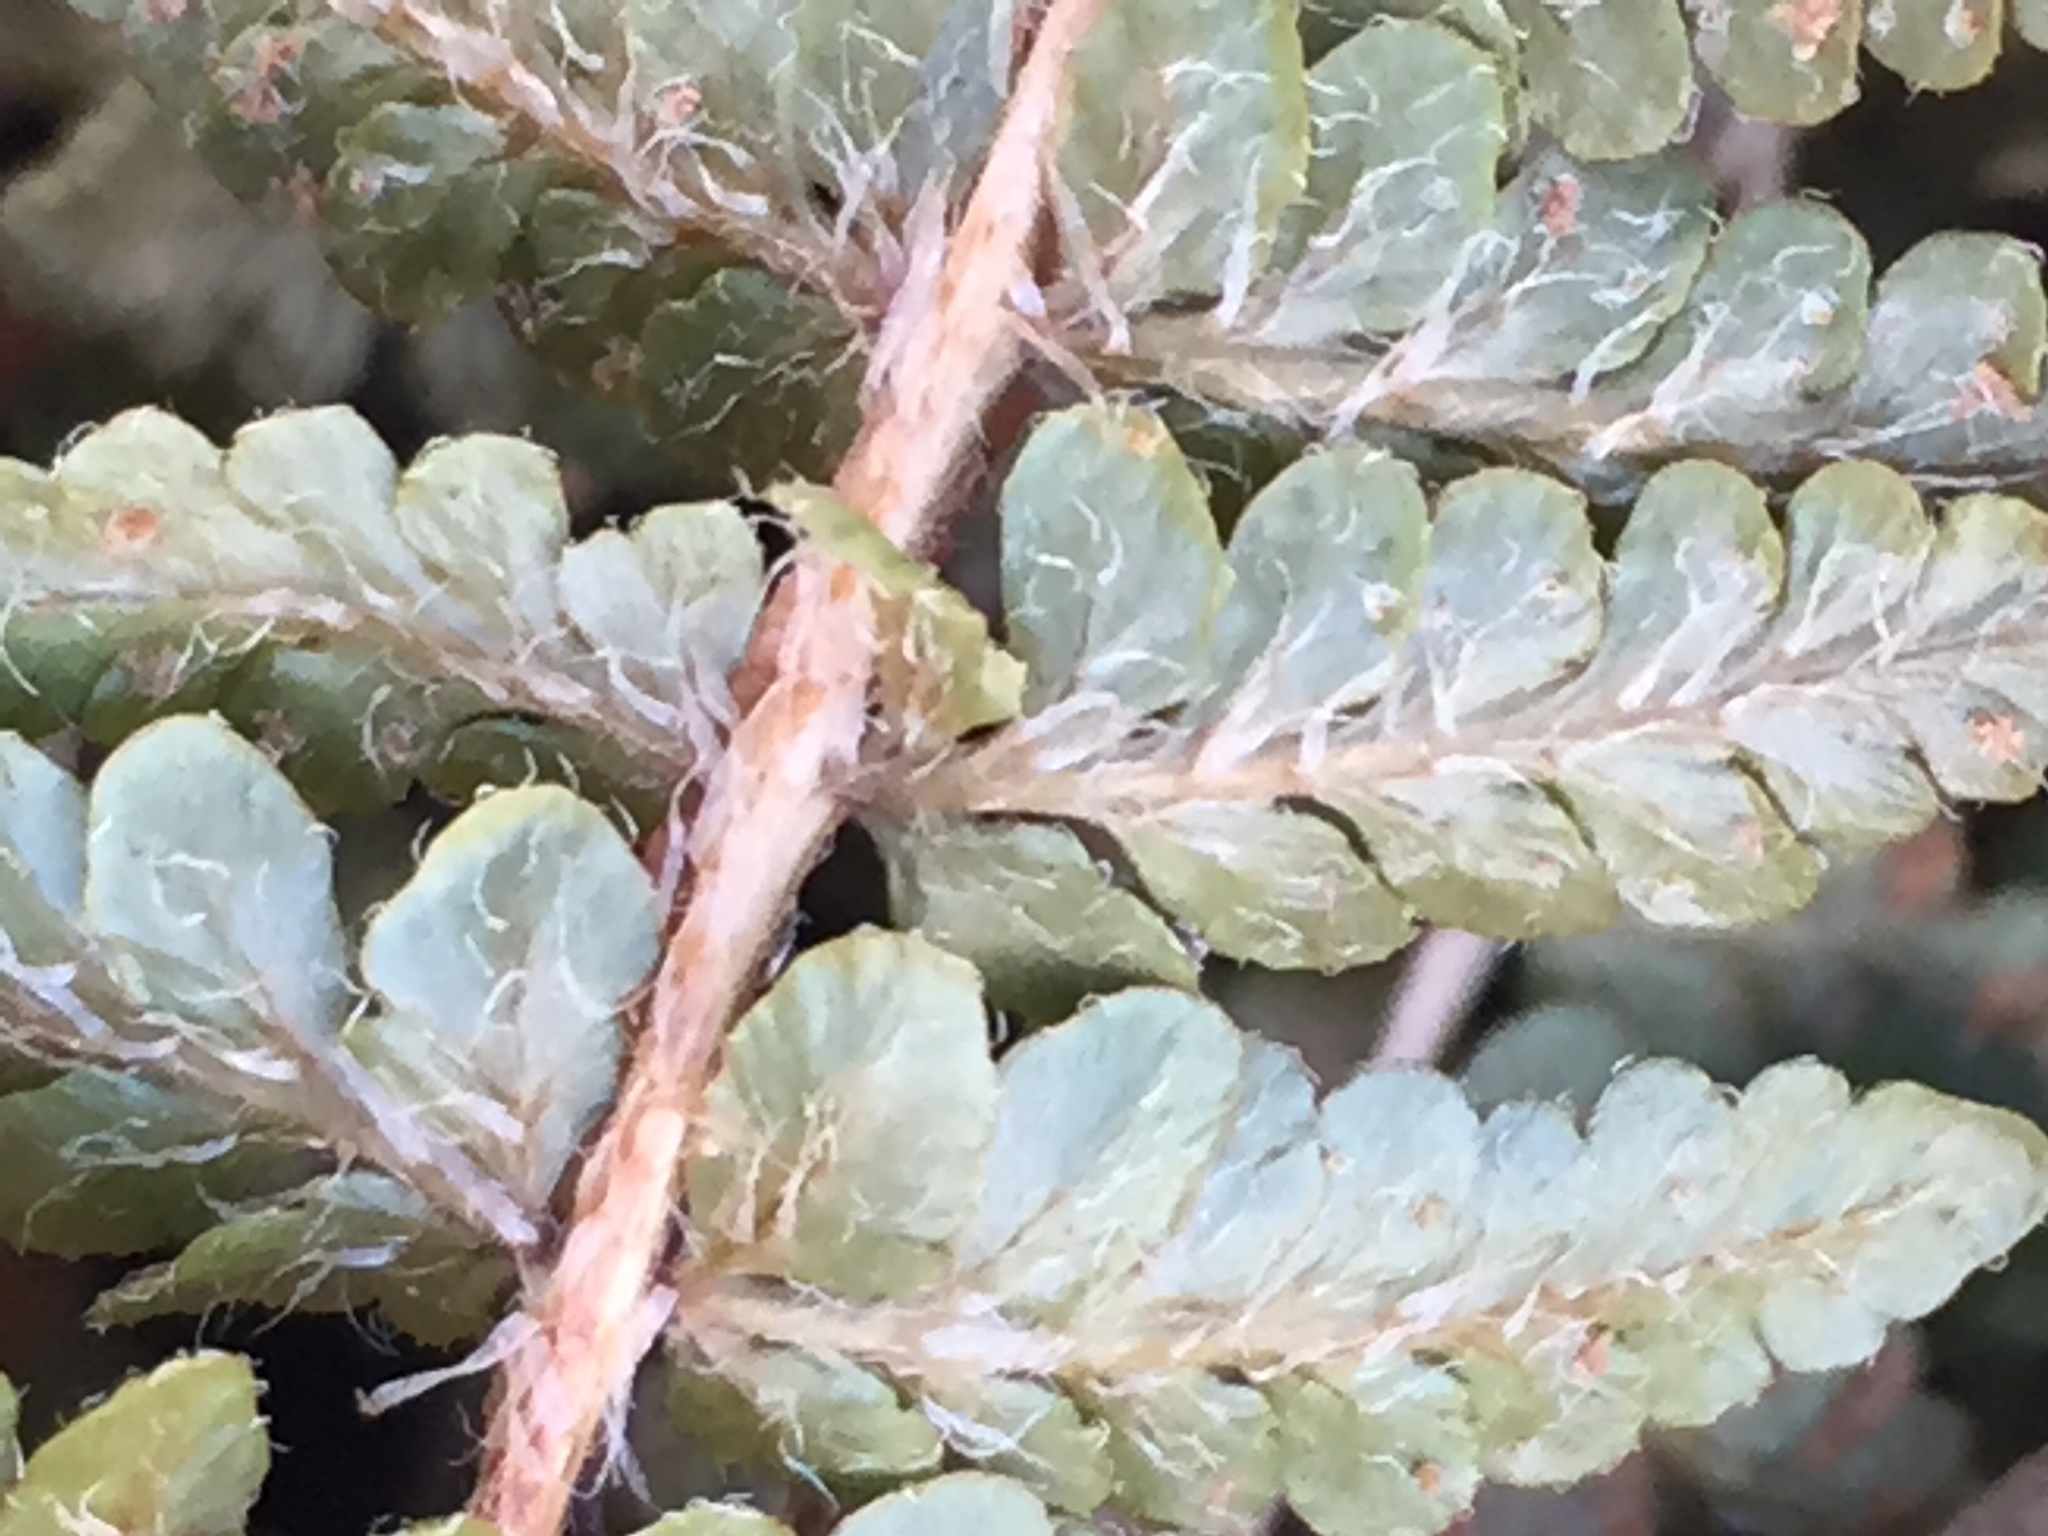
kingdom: Plantae
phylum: Tracheophyta
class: Polypodiopsida
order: Polypodiales
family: Woodsiaceae
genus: Woodsia
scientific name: Woodsia ilvensis
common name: Fragrant woodsia
